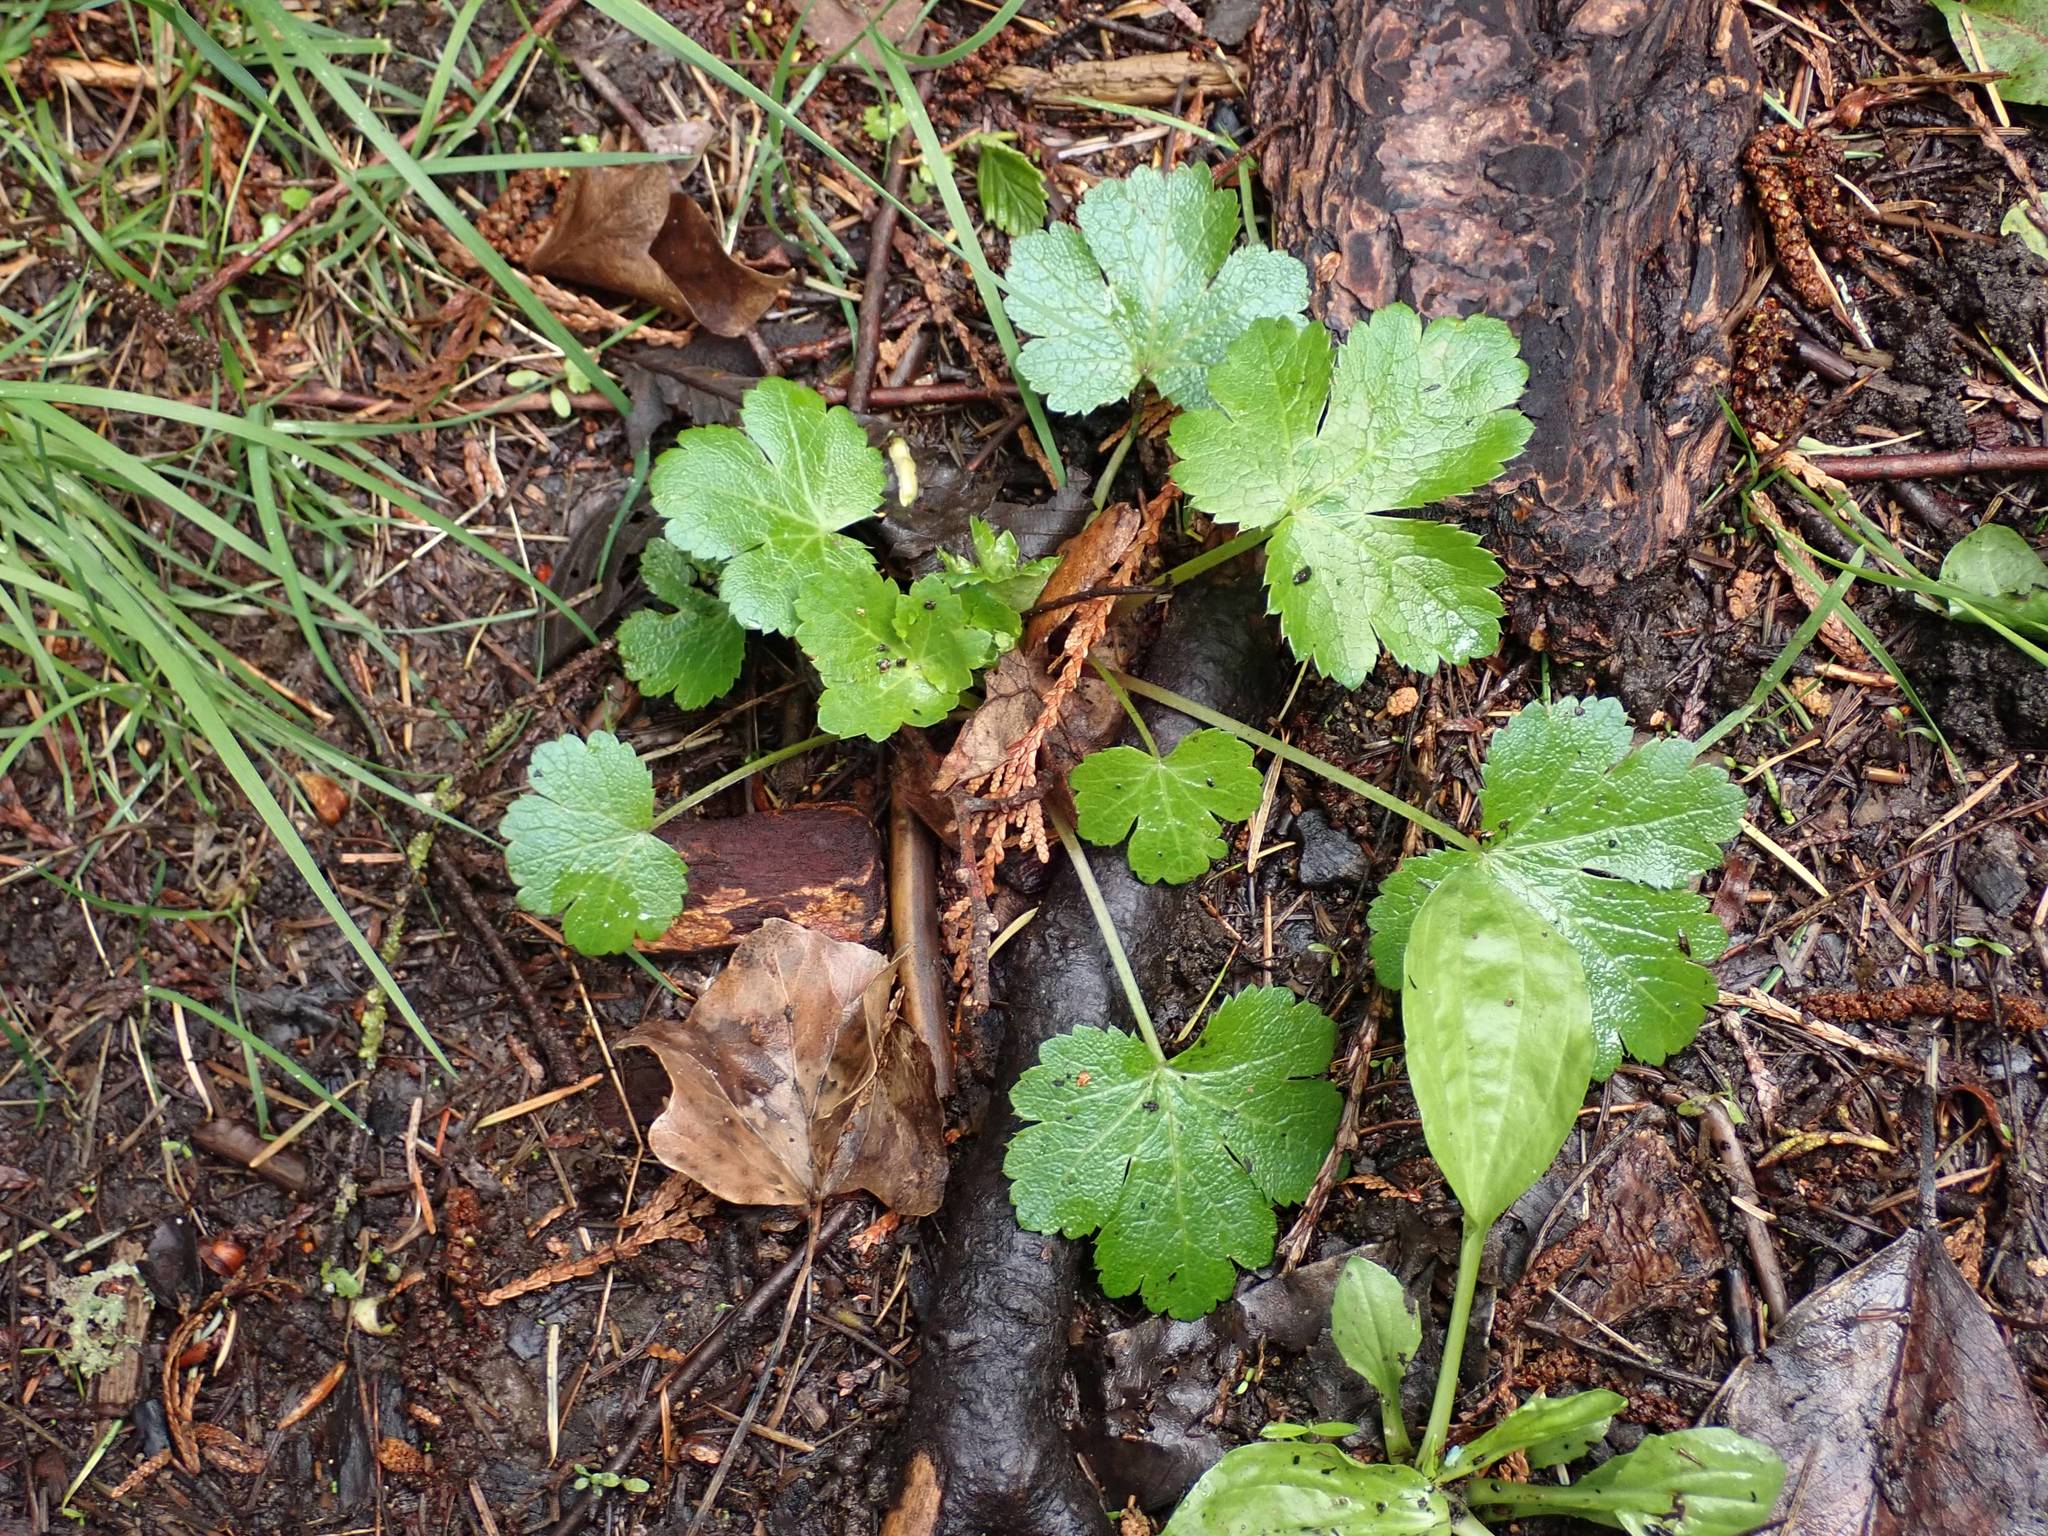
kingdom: Plantae
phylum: Tracheophyta
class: Magnoliopsida
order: Apiales
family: Apiaceae
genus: Sanicula
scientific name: Sanicula crassicaulis
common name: Western snakeroot
